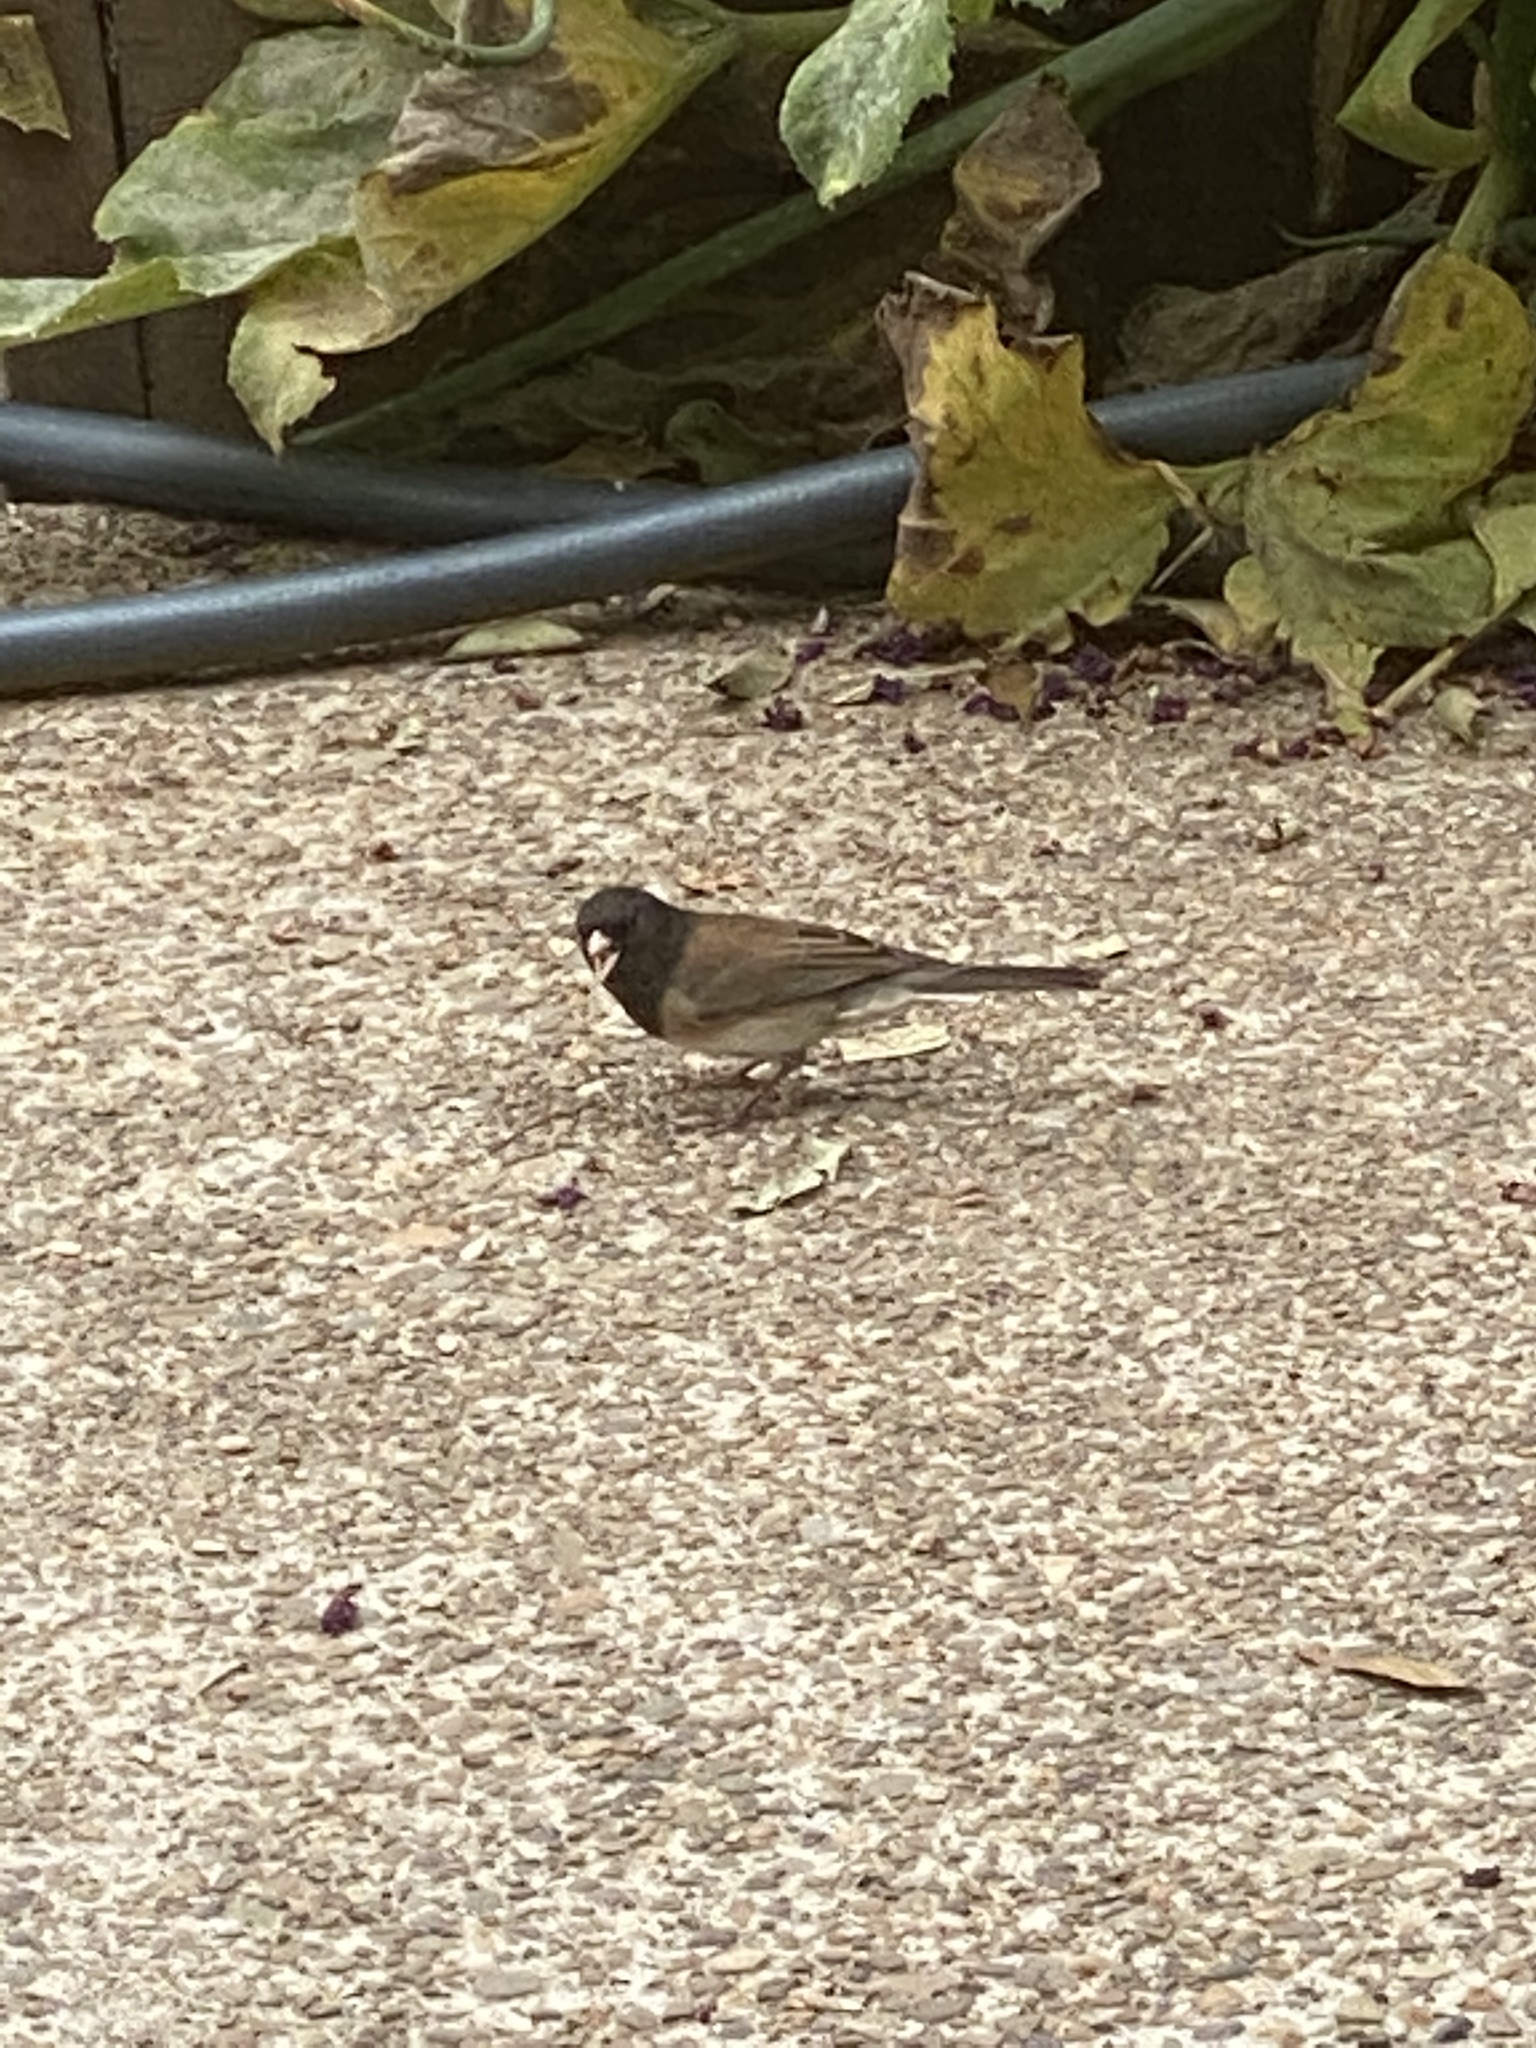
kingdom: Animalia
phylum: Chordata
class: Aves
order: Passeriformes
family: Passerellidae
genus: Junco
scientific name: Junco hyemalis
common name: Dark-eyed junco
